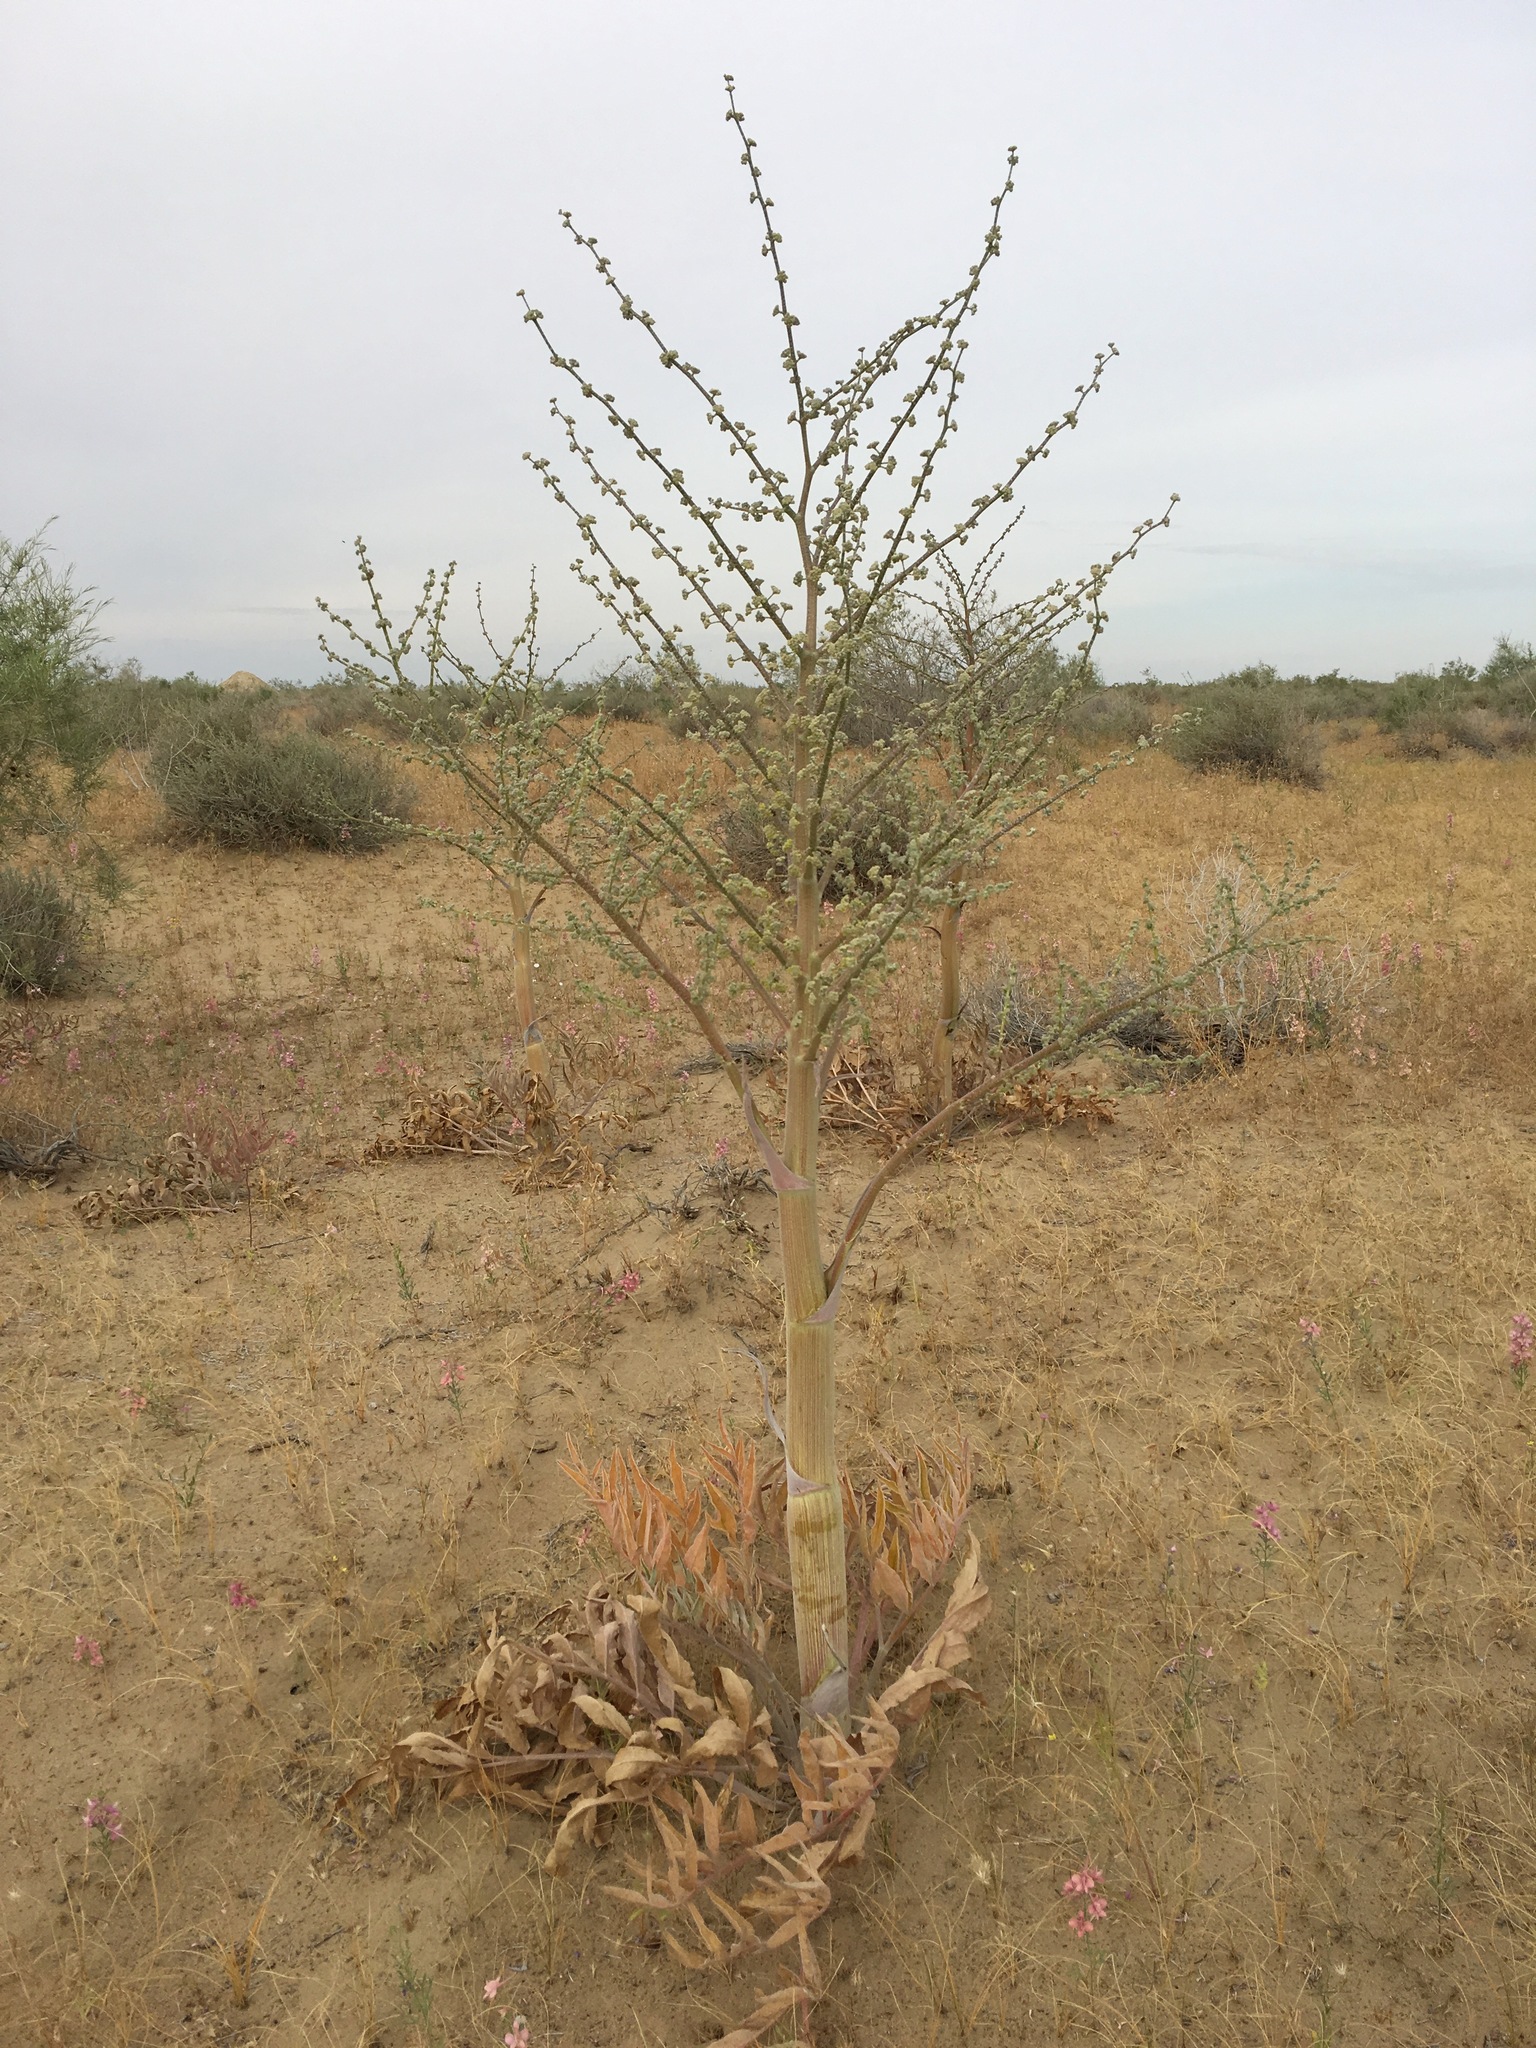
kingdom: Plantae
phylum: Tracheophyta
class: Magnoliopsida
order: Apiales
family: Apiaceae
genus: Ferula
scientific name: Ferula sabulosum
